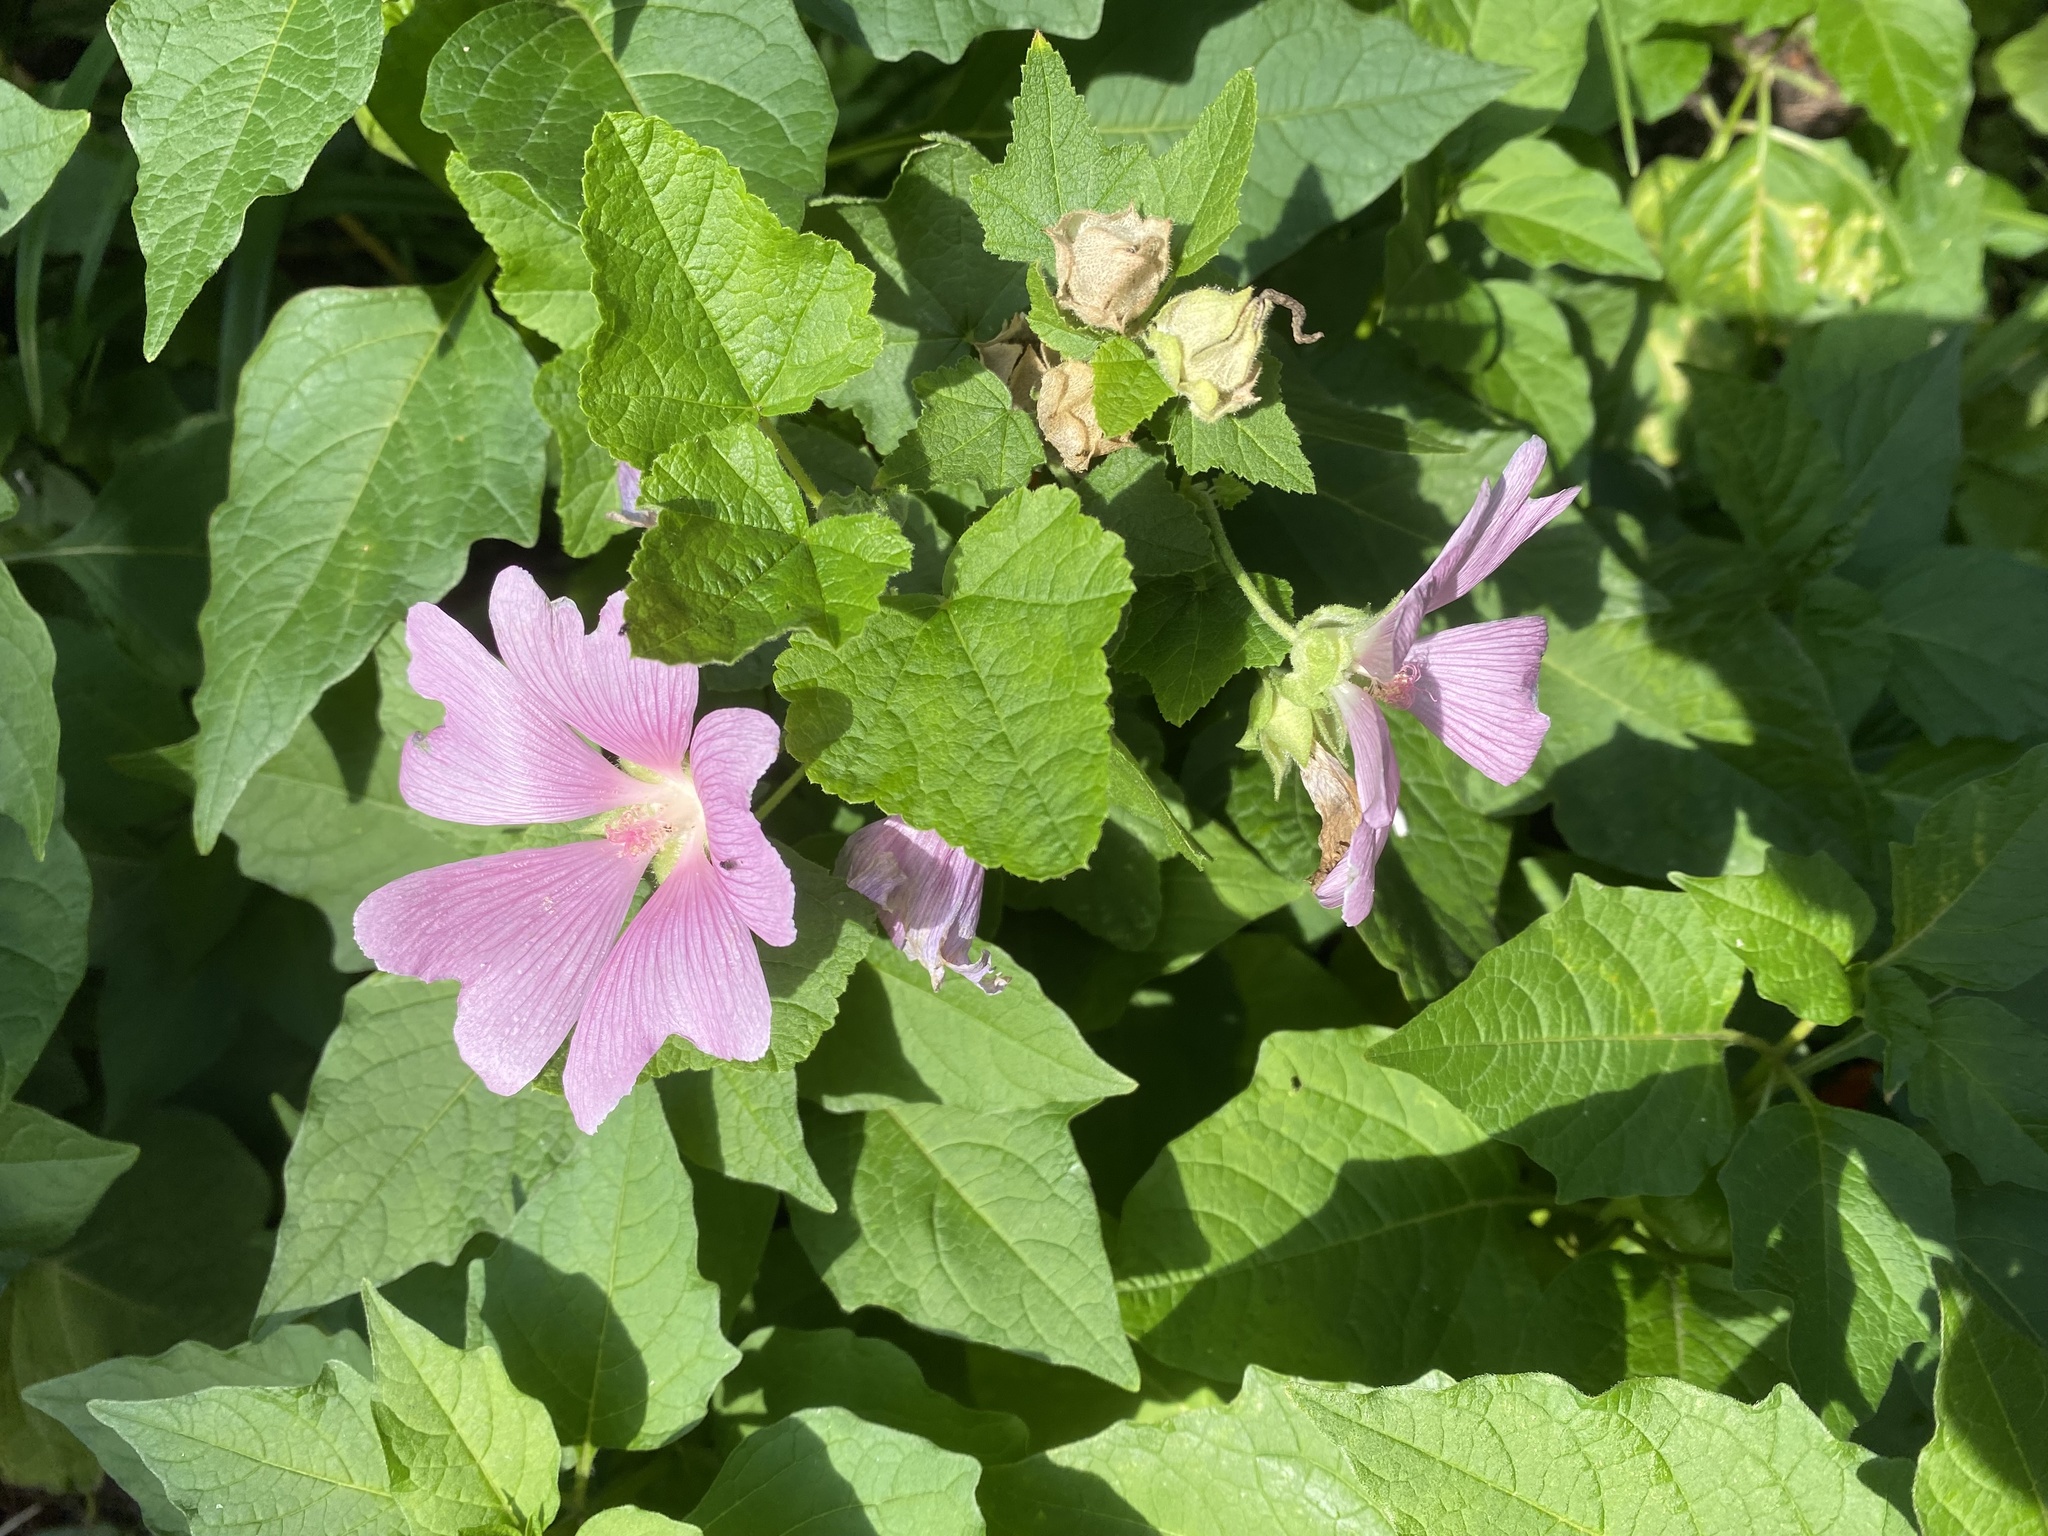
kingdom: Plantae
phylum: Tracheophyta
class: Magnoliopsida
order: Malvales
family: Malvaceae
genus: Malva
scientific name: Malva thuringiaca
